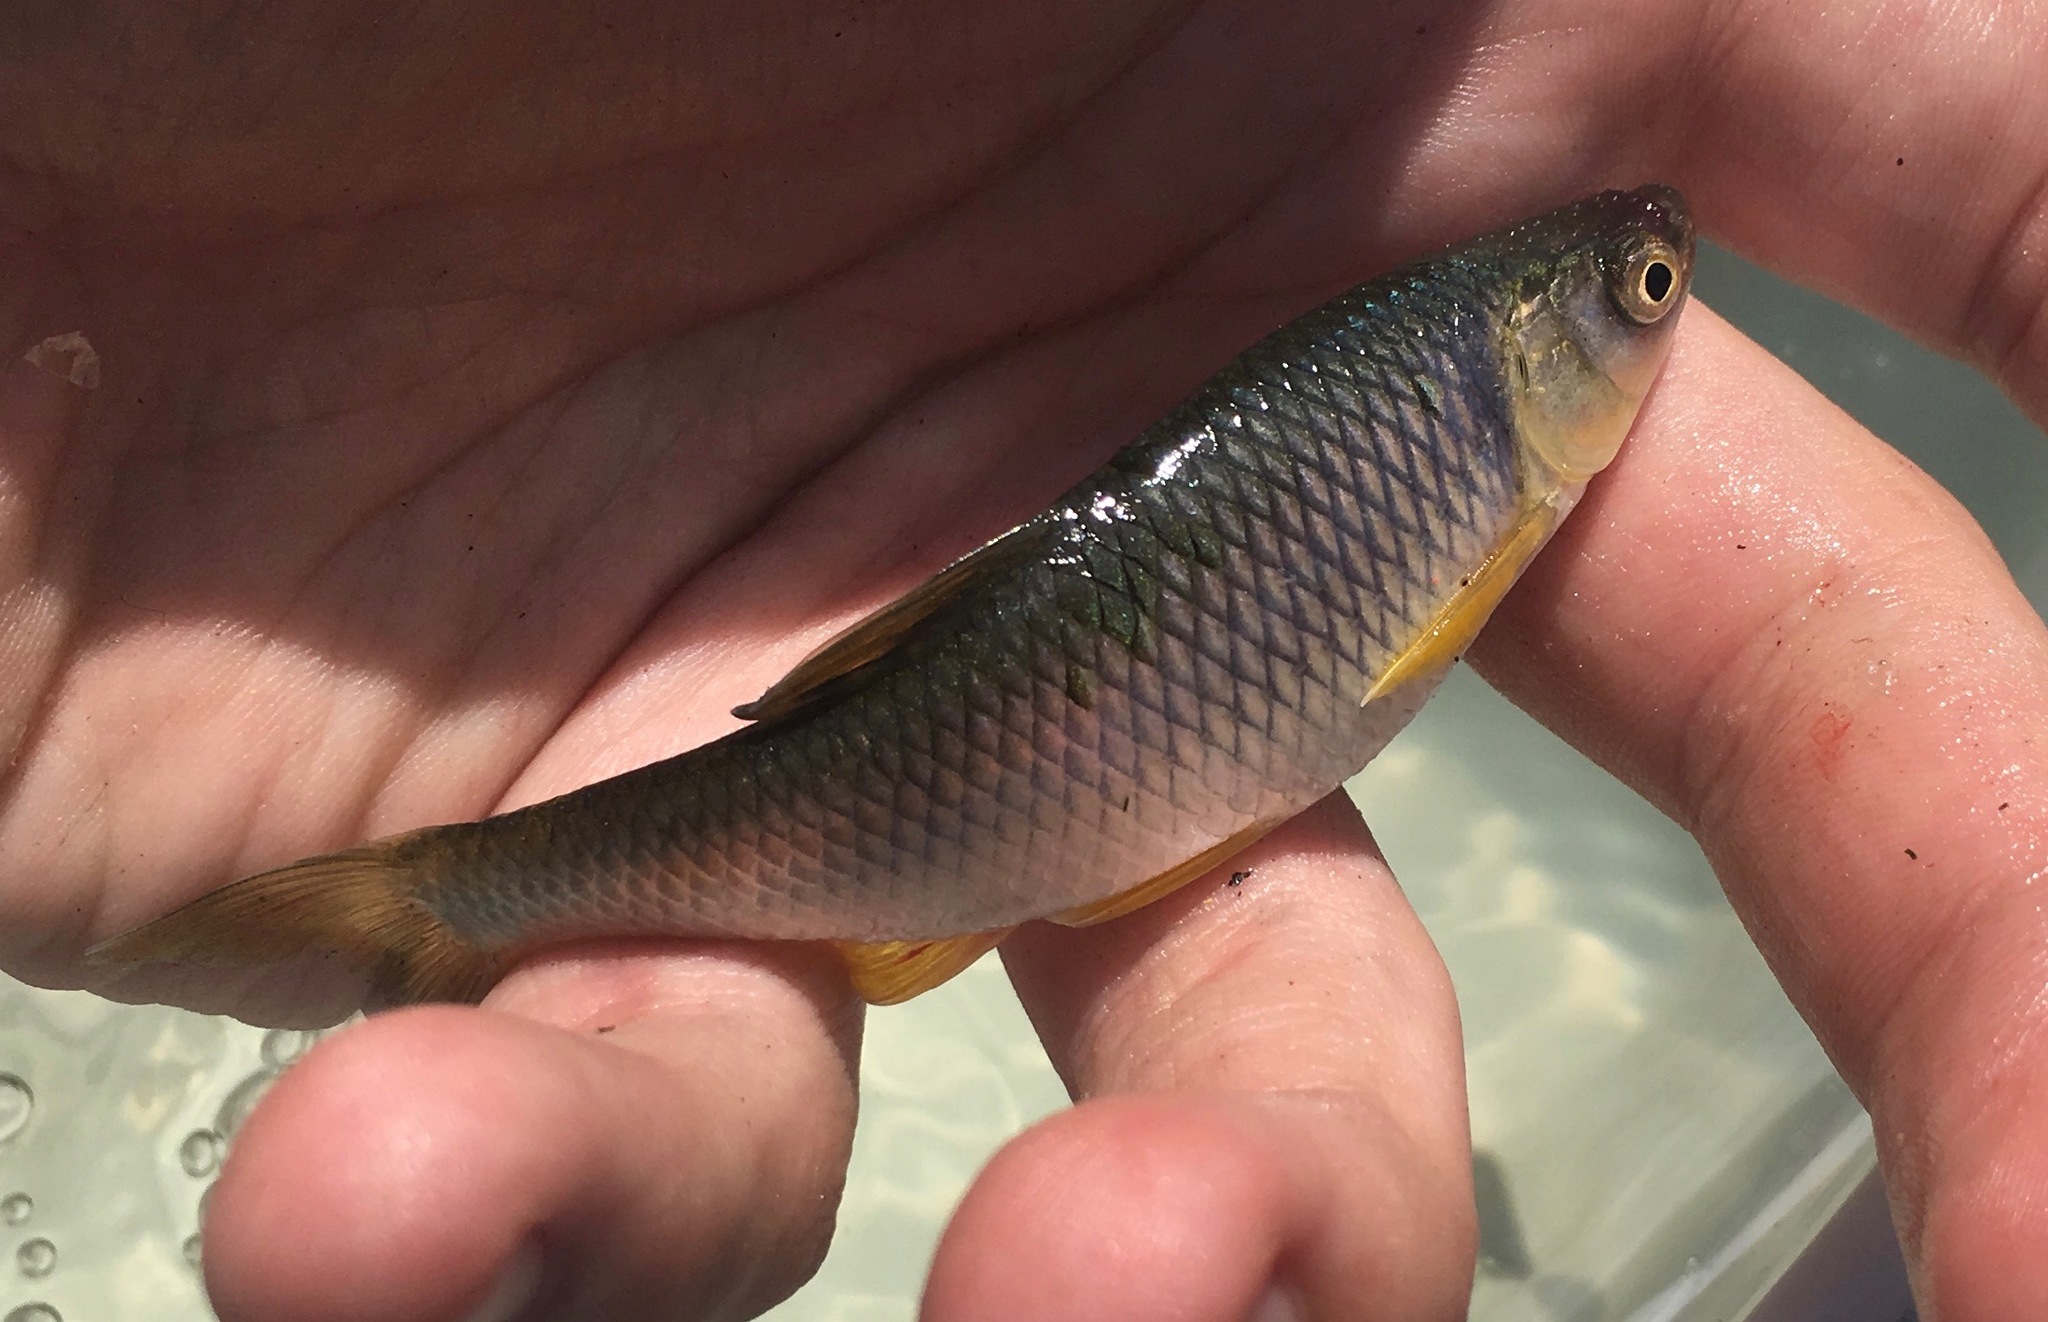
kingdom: Animalia
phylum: Chordata
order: Cypriniformes
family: Cyprinidae
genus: Cyprinella
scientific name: Cyprinella spiloptera
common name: Spotfin shiner
